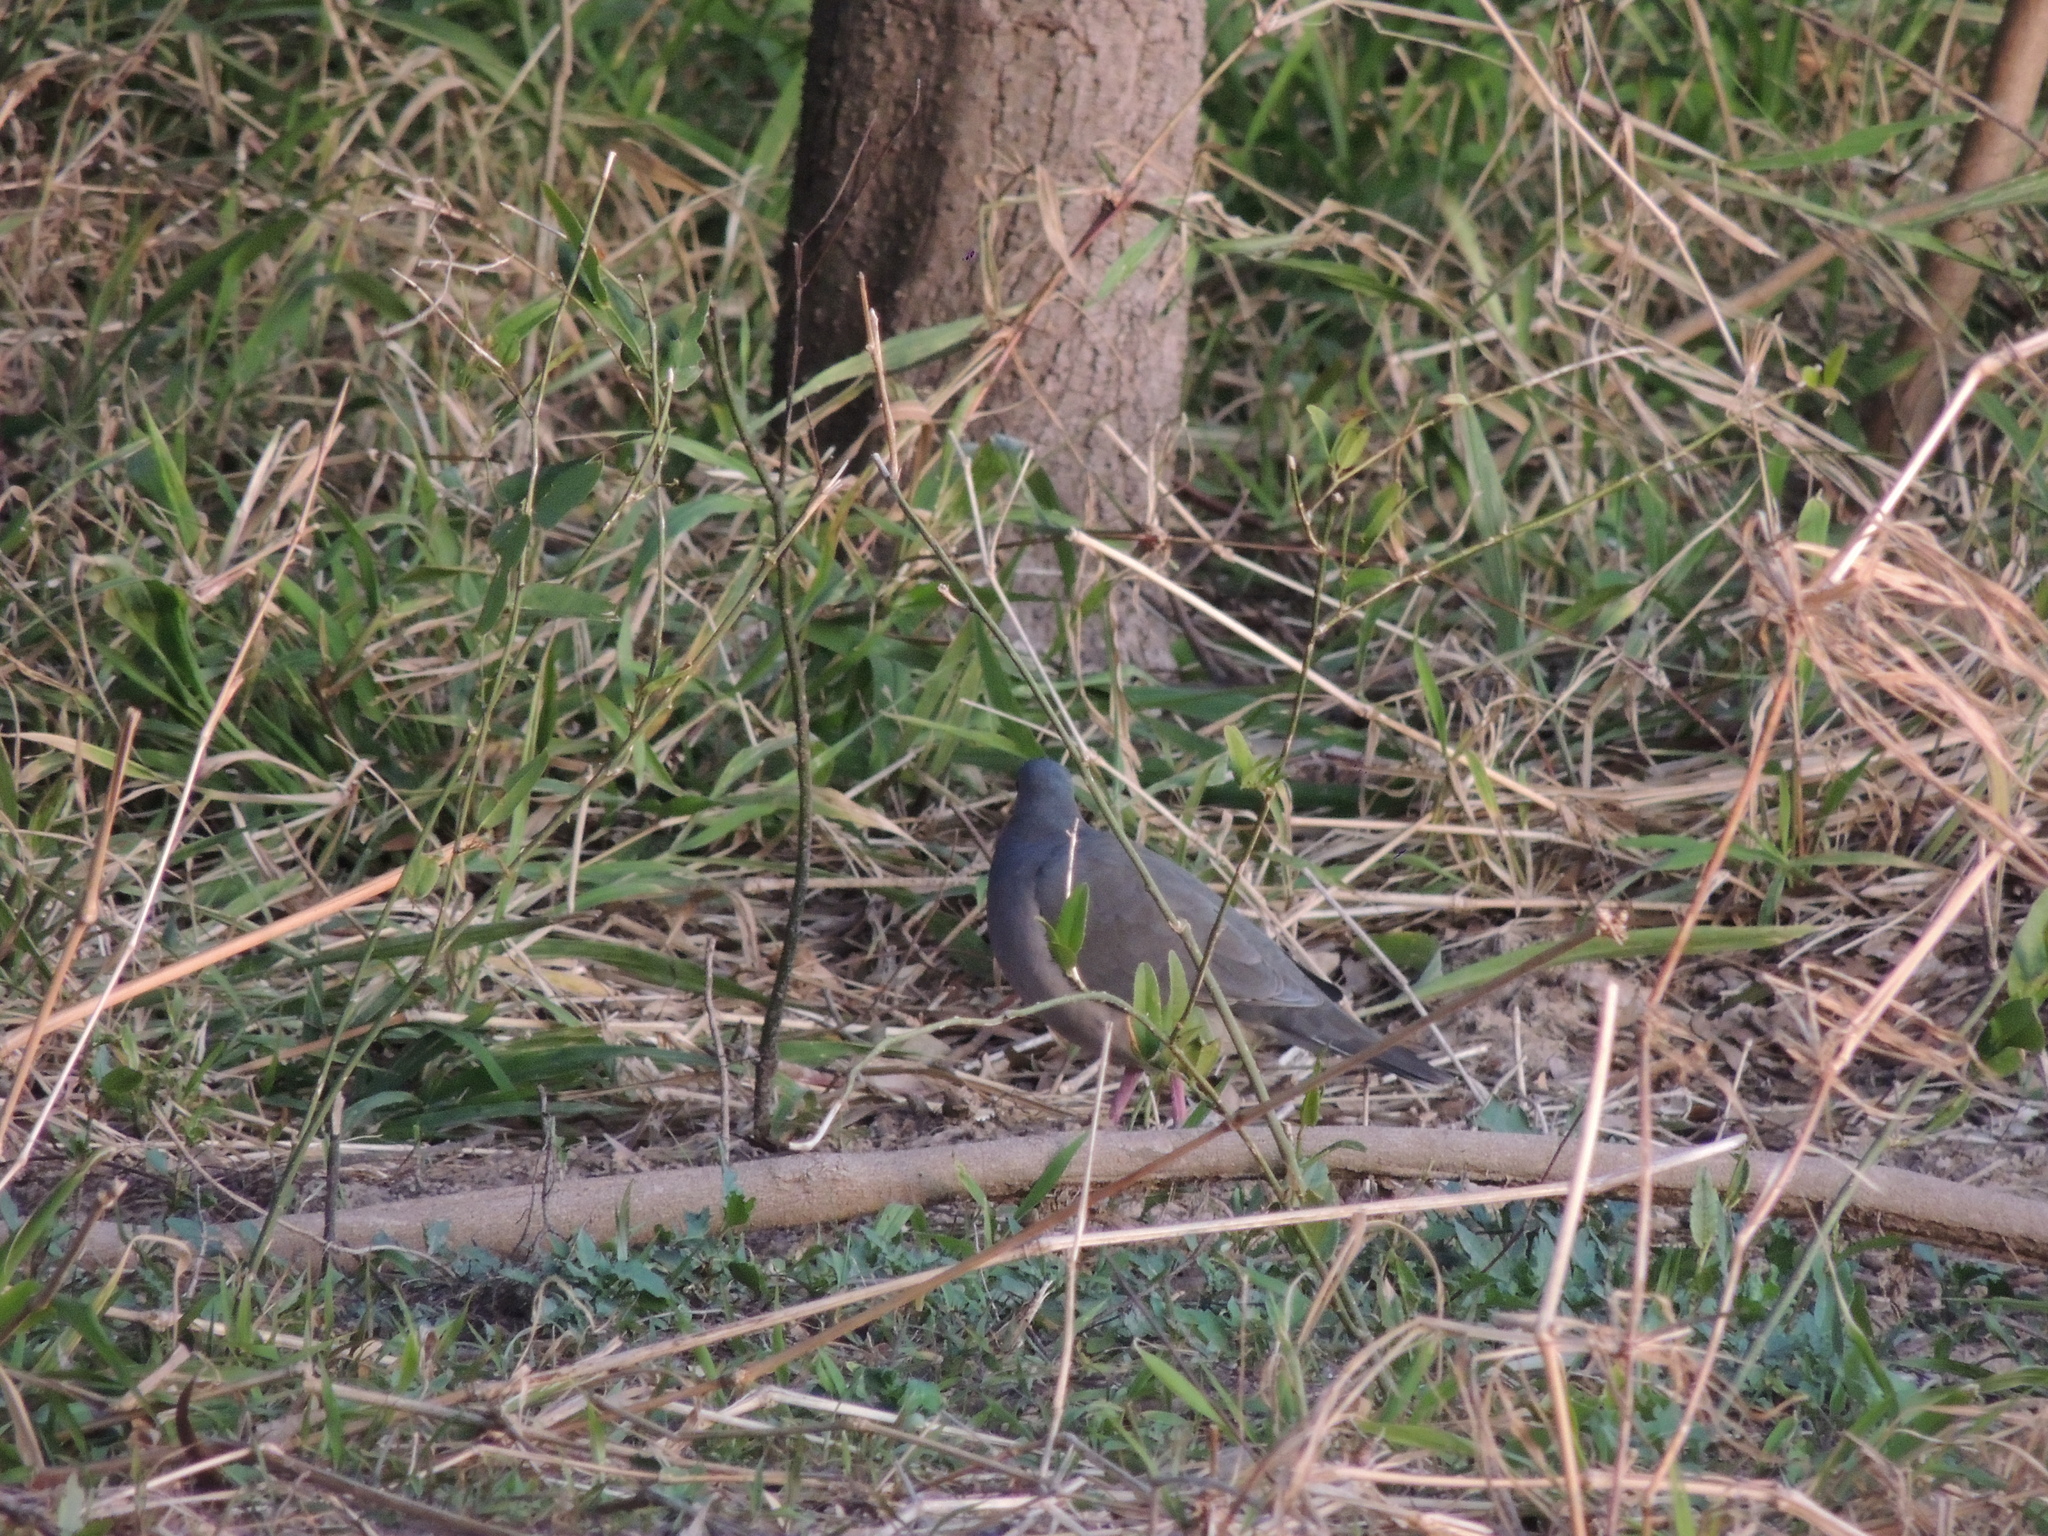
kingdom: Animalia
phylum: Chordata
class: Aves
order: Columbiformes
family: Columbidae
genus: Leptotila
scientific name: Leptotila verreauxi
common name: White-tipped dove
